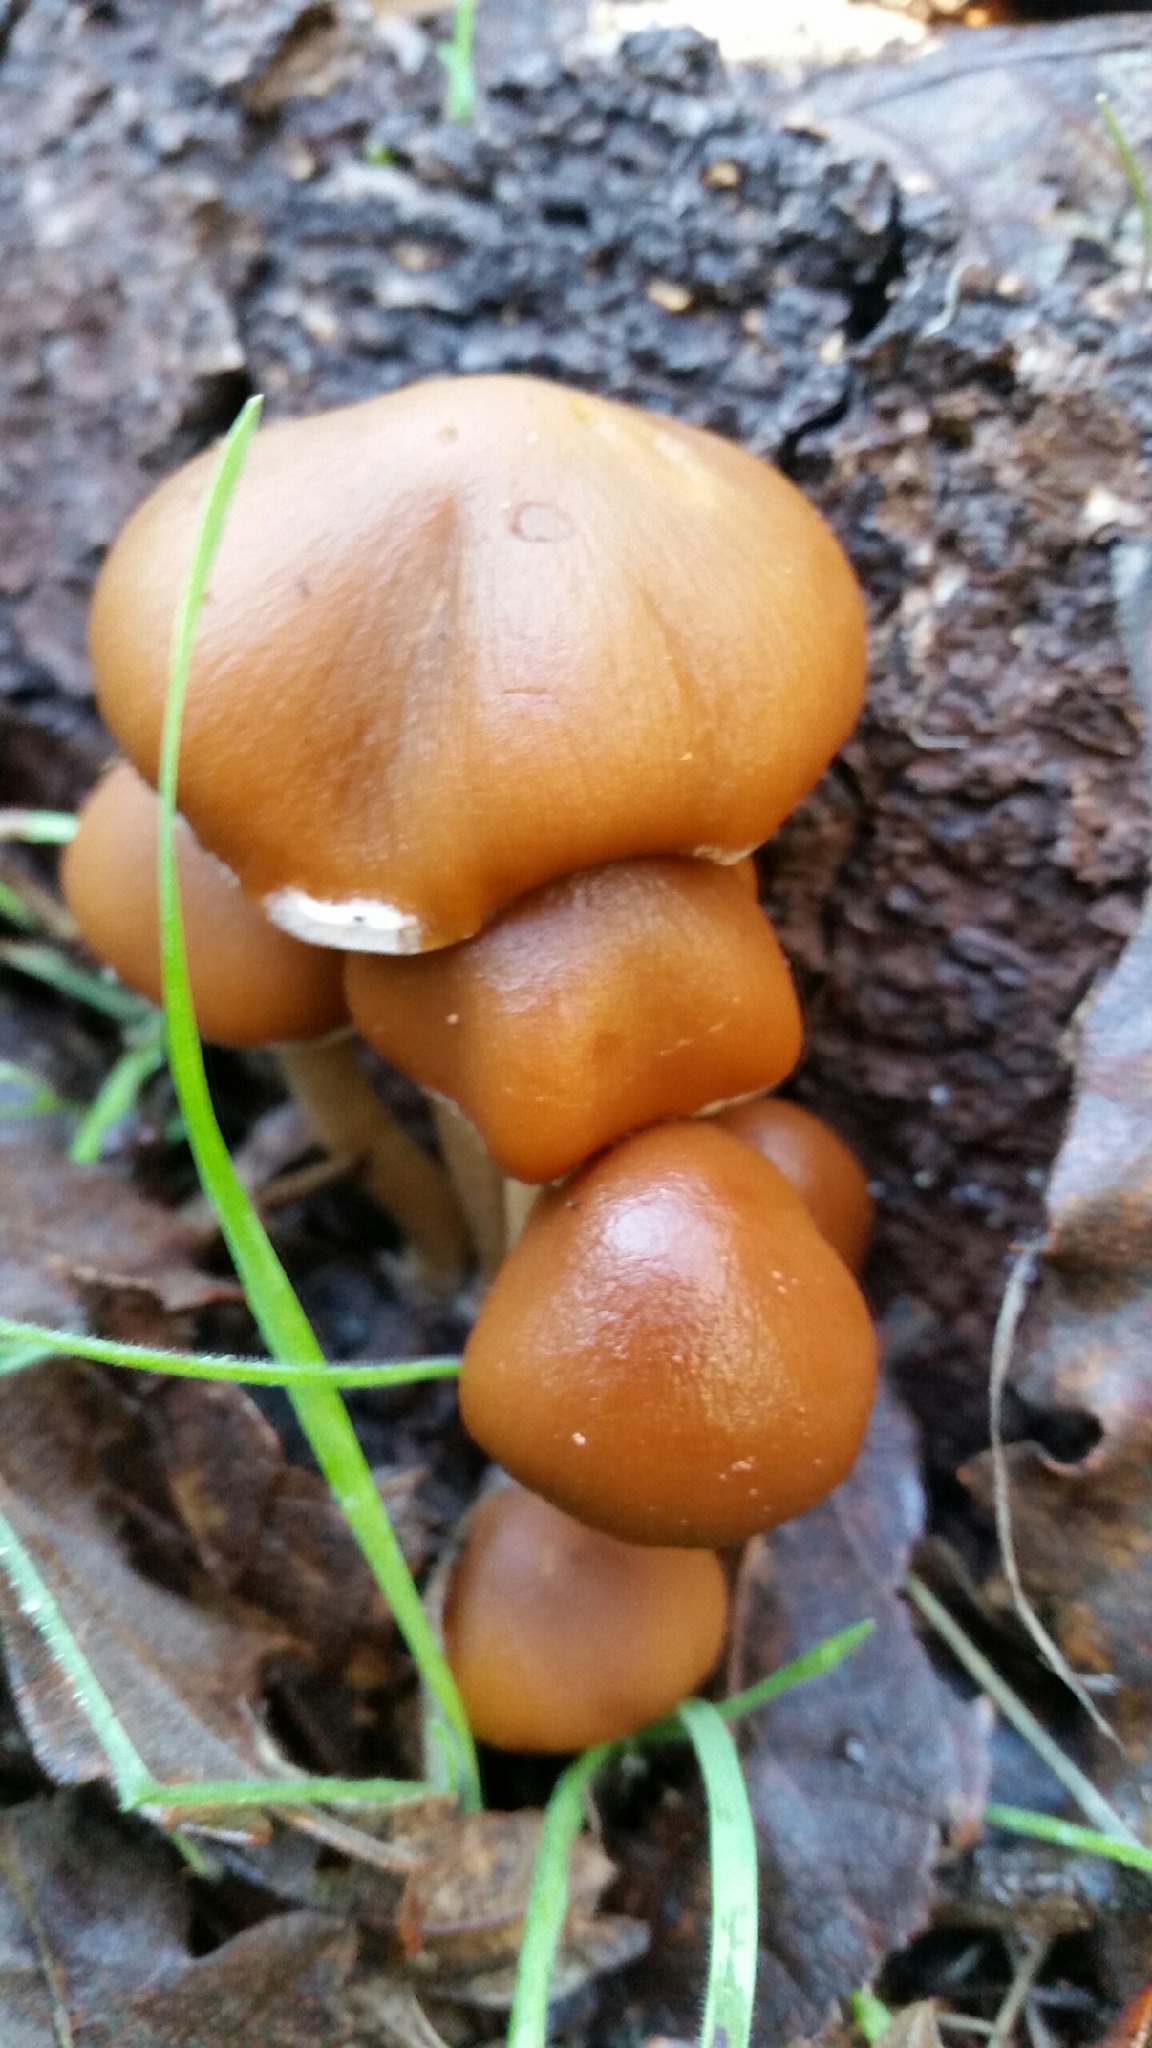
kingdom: Fungi
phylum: Basidiomycota
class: Agaricomycetes
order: Agaricales
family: Psathyrellaceae
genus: Psathyrella
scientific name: Psathyrella piluliformis
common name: Common stump brittlestem
